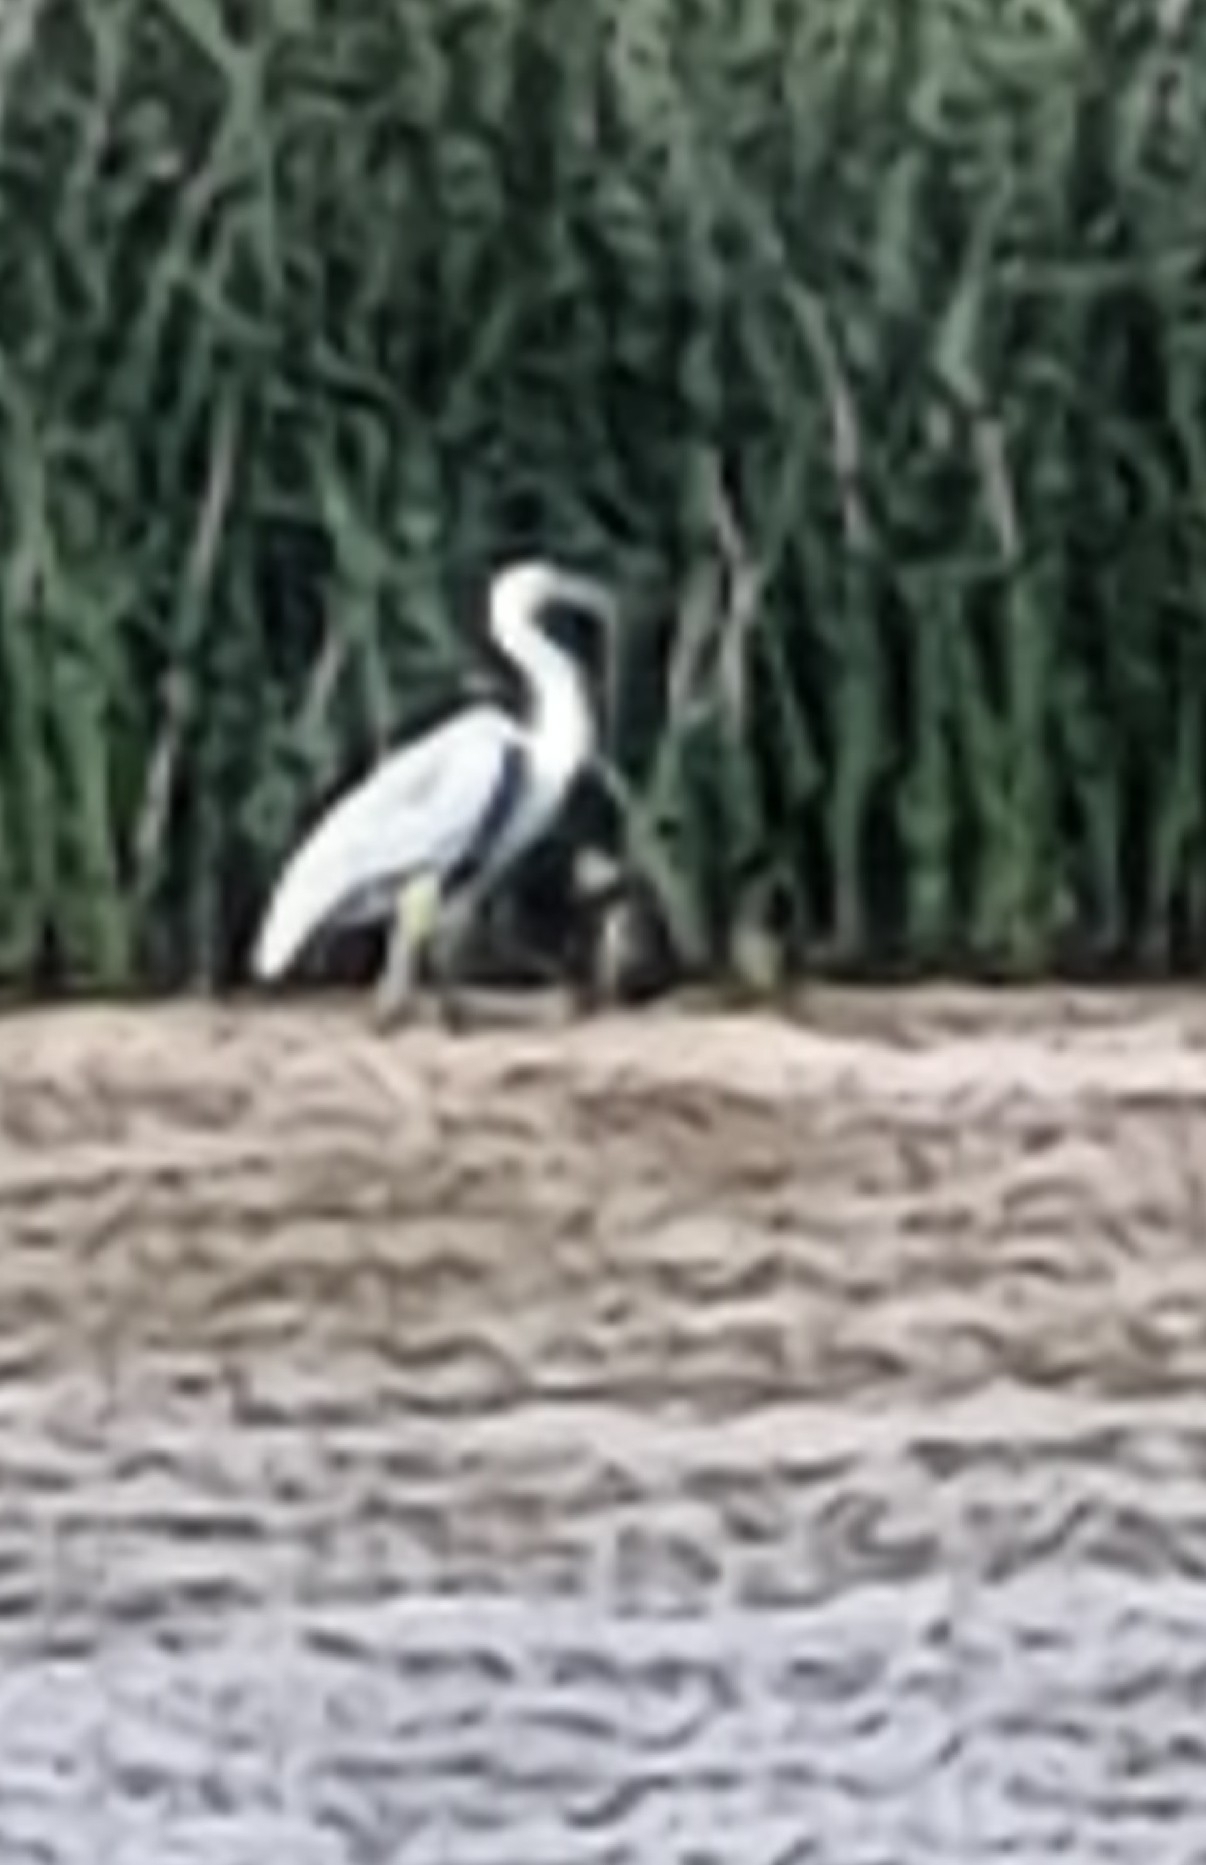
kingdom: Animalia
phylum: Chordata
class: Aves
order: Pelecaniformes
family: Ardeidae
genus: Ardea
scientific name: Ardea cocoi
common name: Cocoi heron
